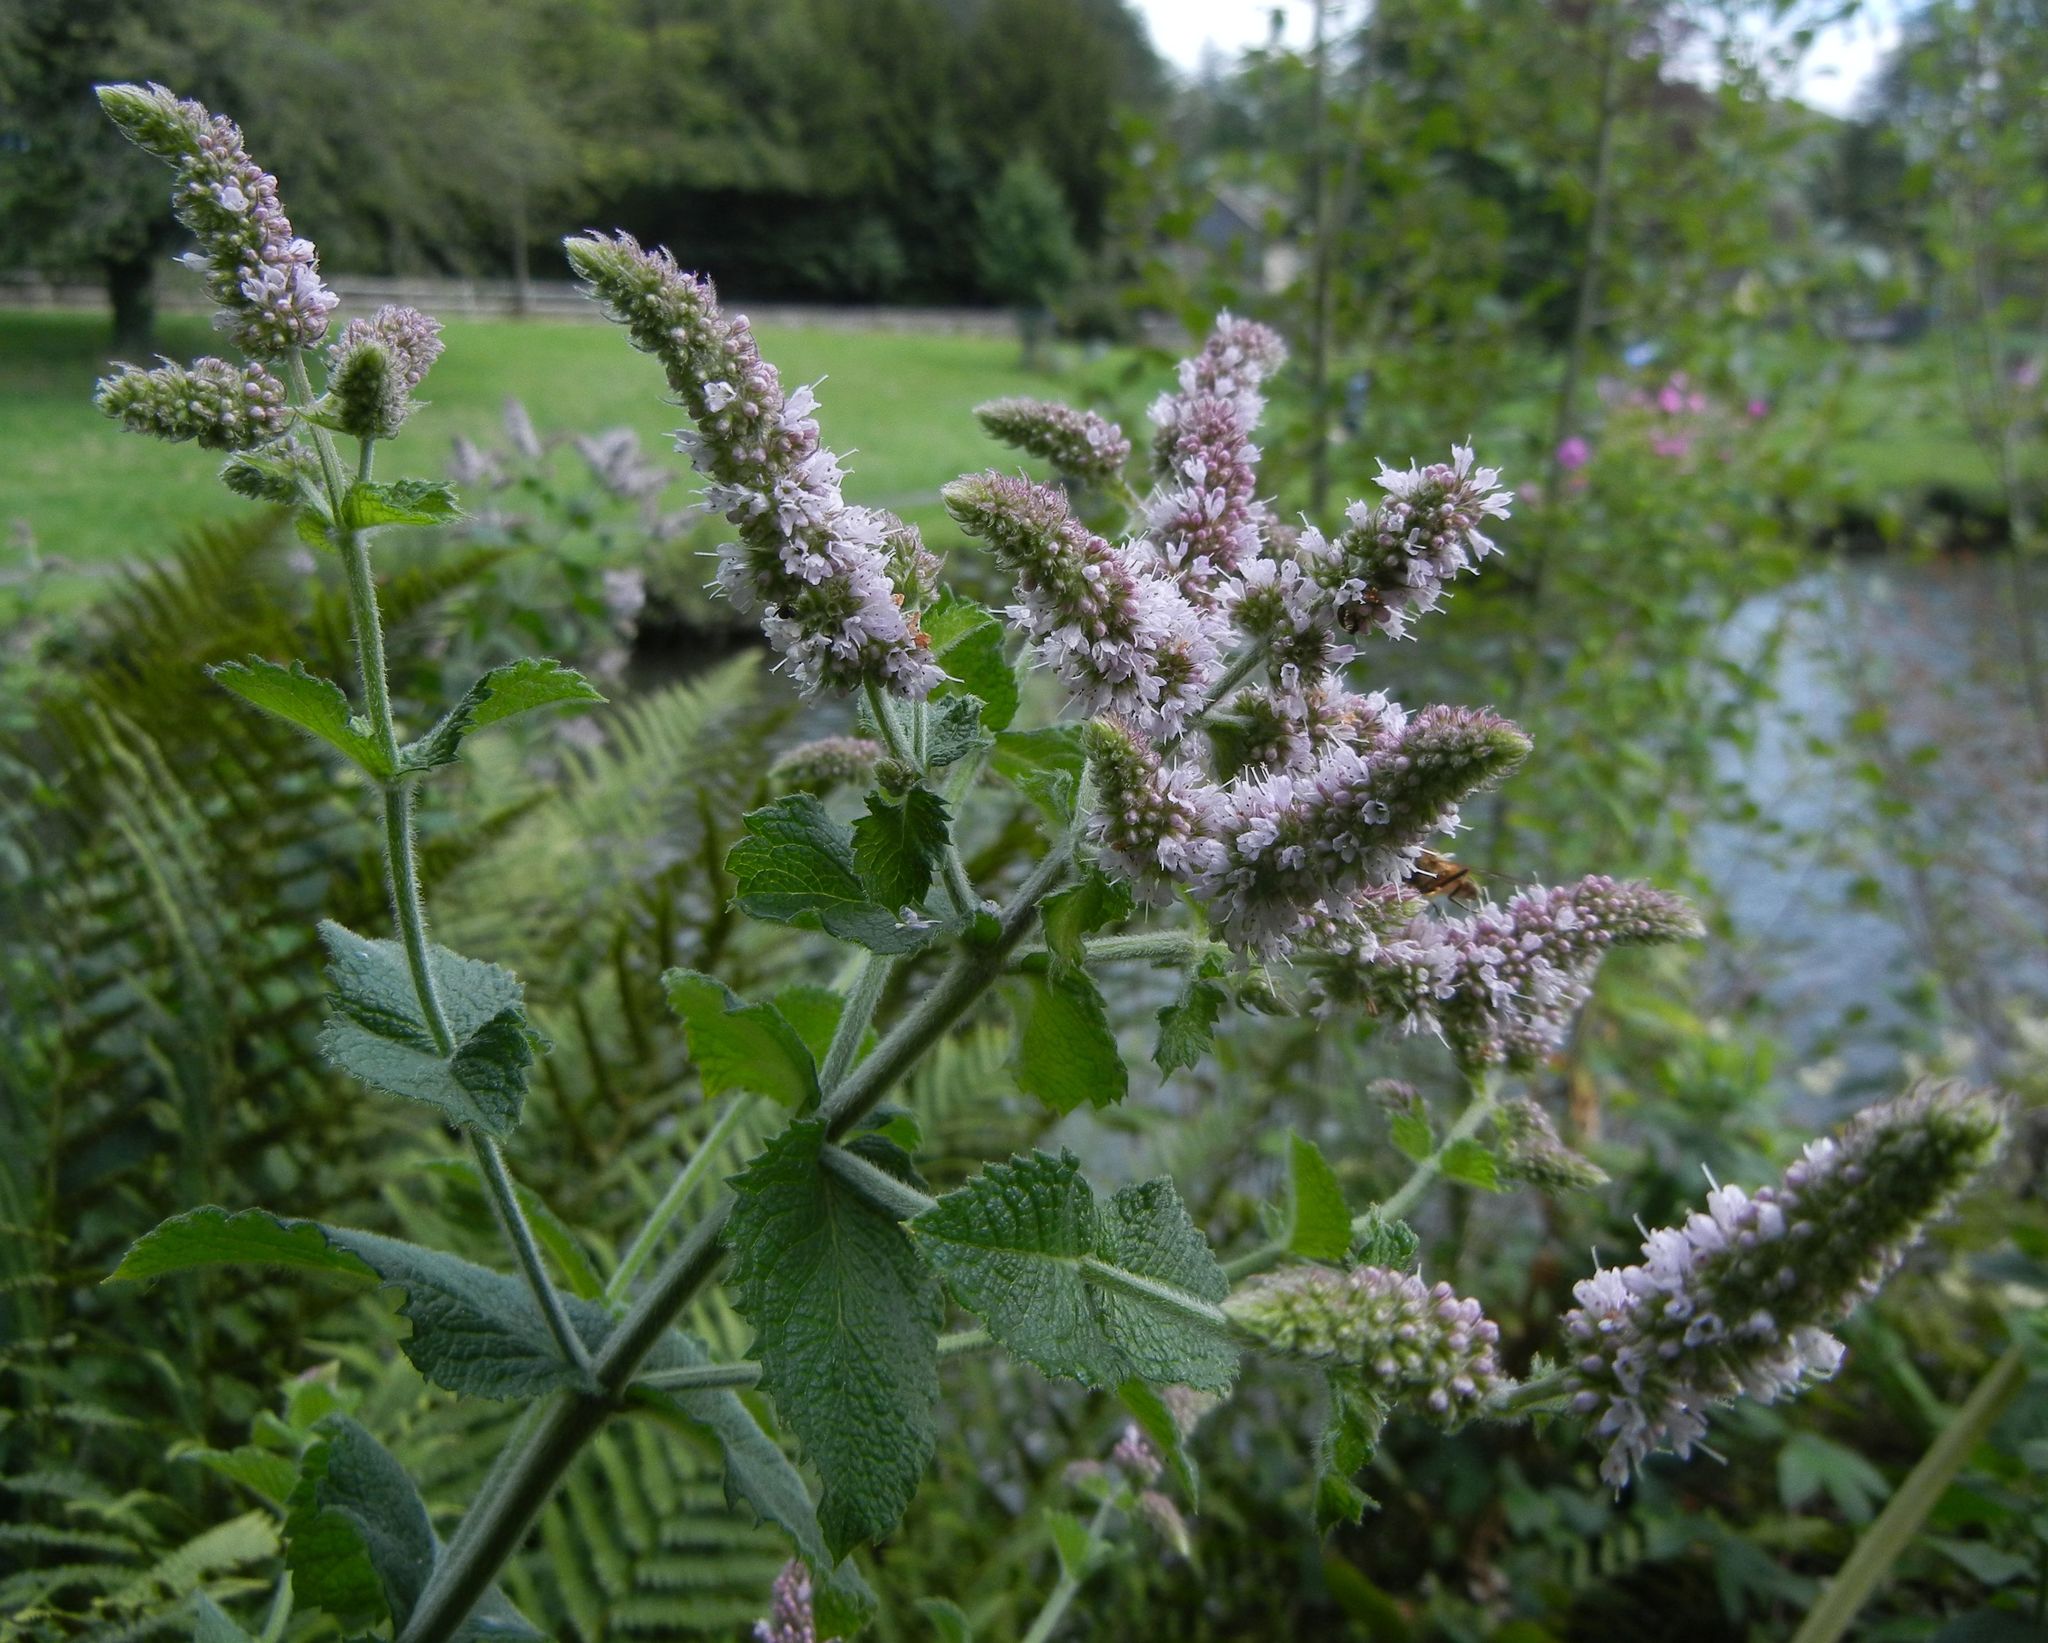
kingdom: Plantae
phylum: Tracheophyta
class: Magnoliopsida
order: Lamiales
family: Lamiaceae
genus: Mentha
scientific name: Mentha villosa
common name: Apple mint
